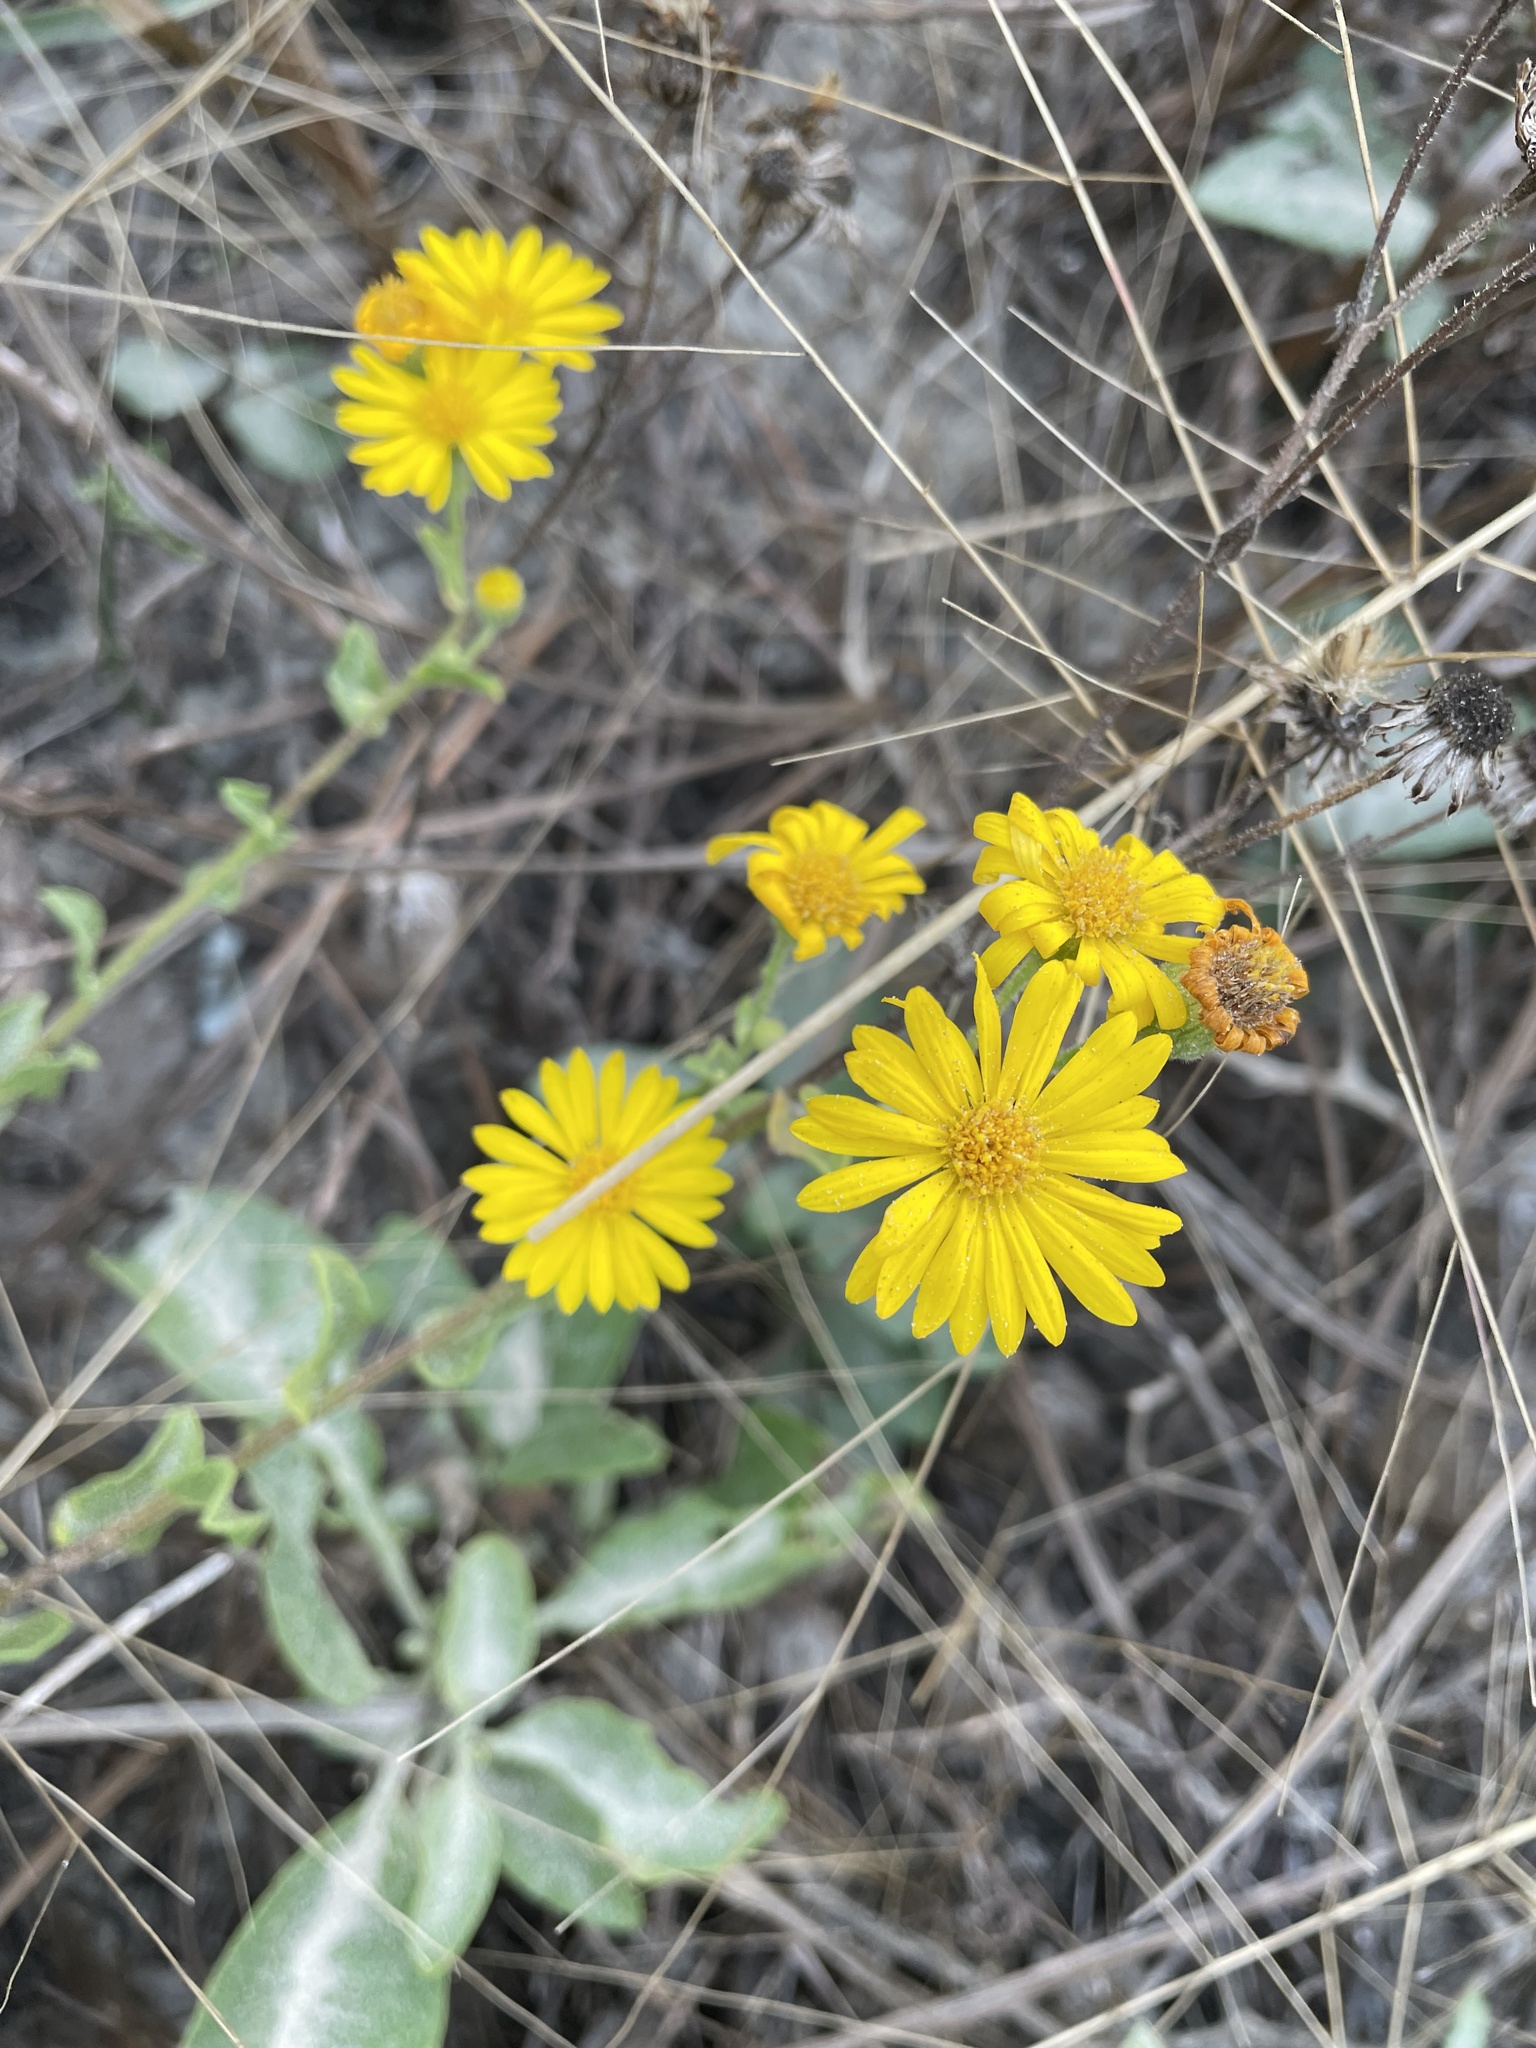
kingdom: Plantae
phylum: Tracheophyta
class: Magnoliopsida
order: Asterales
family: Asteraceae
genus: Heterotheca
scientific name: Heterotheca subaxillaris
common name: Camphorweed
